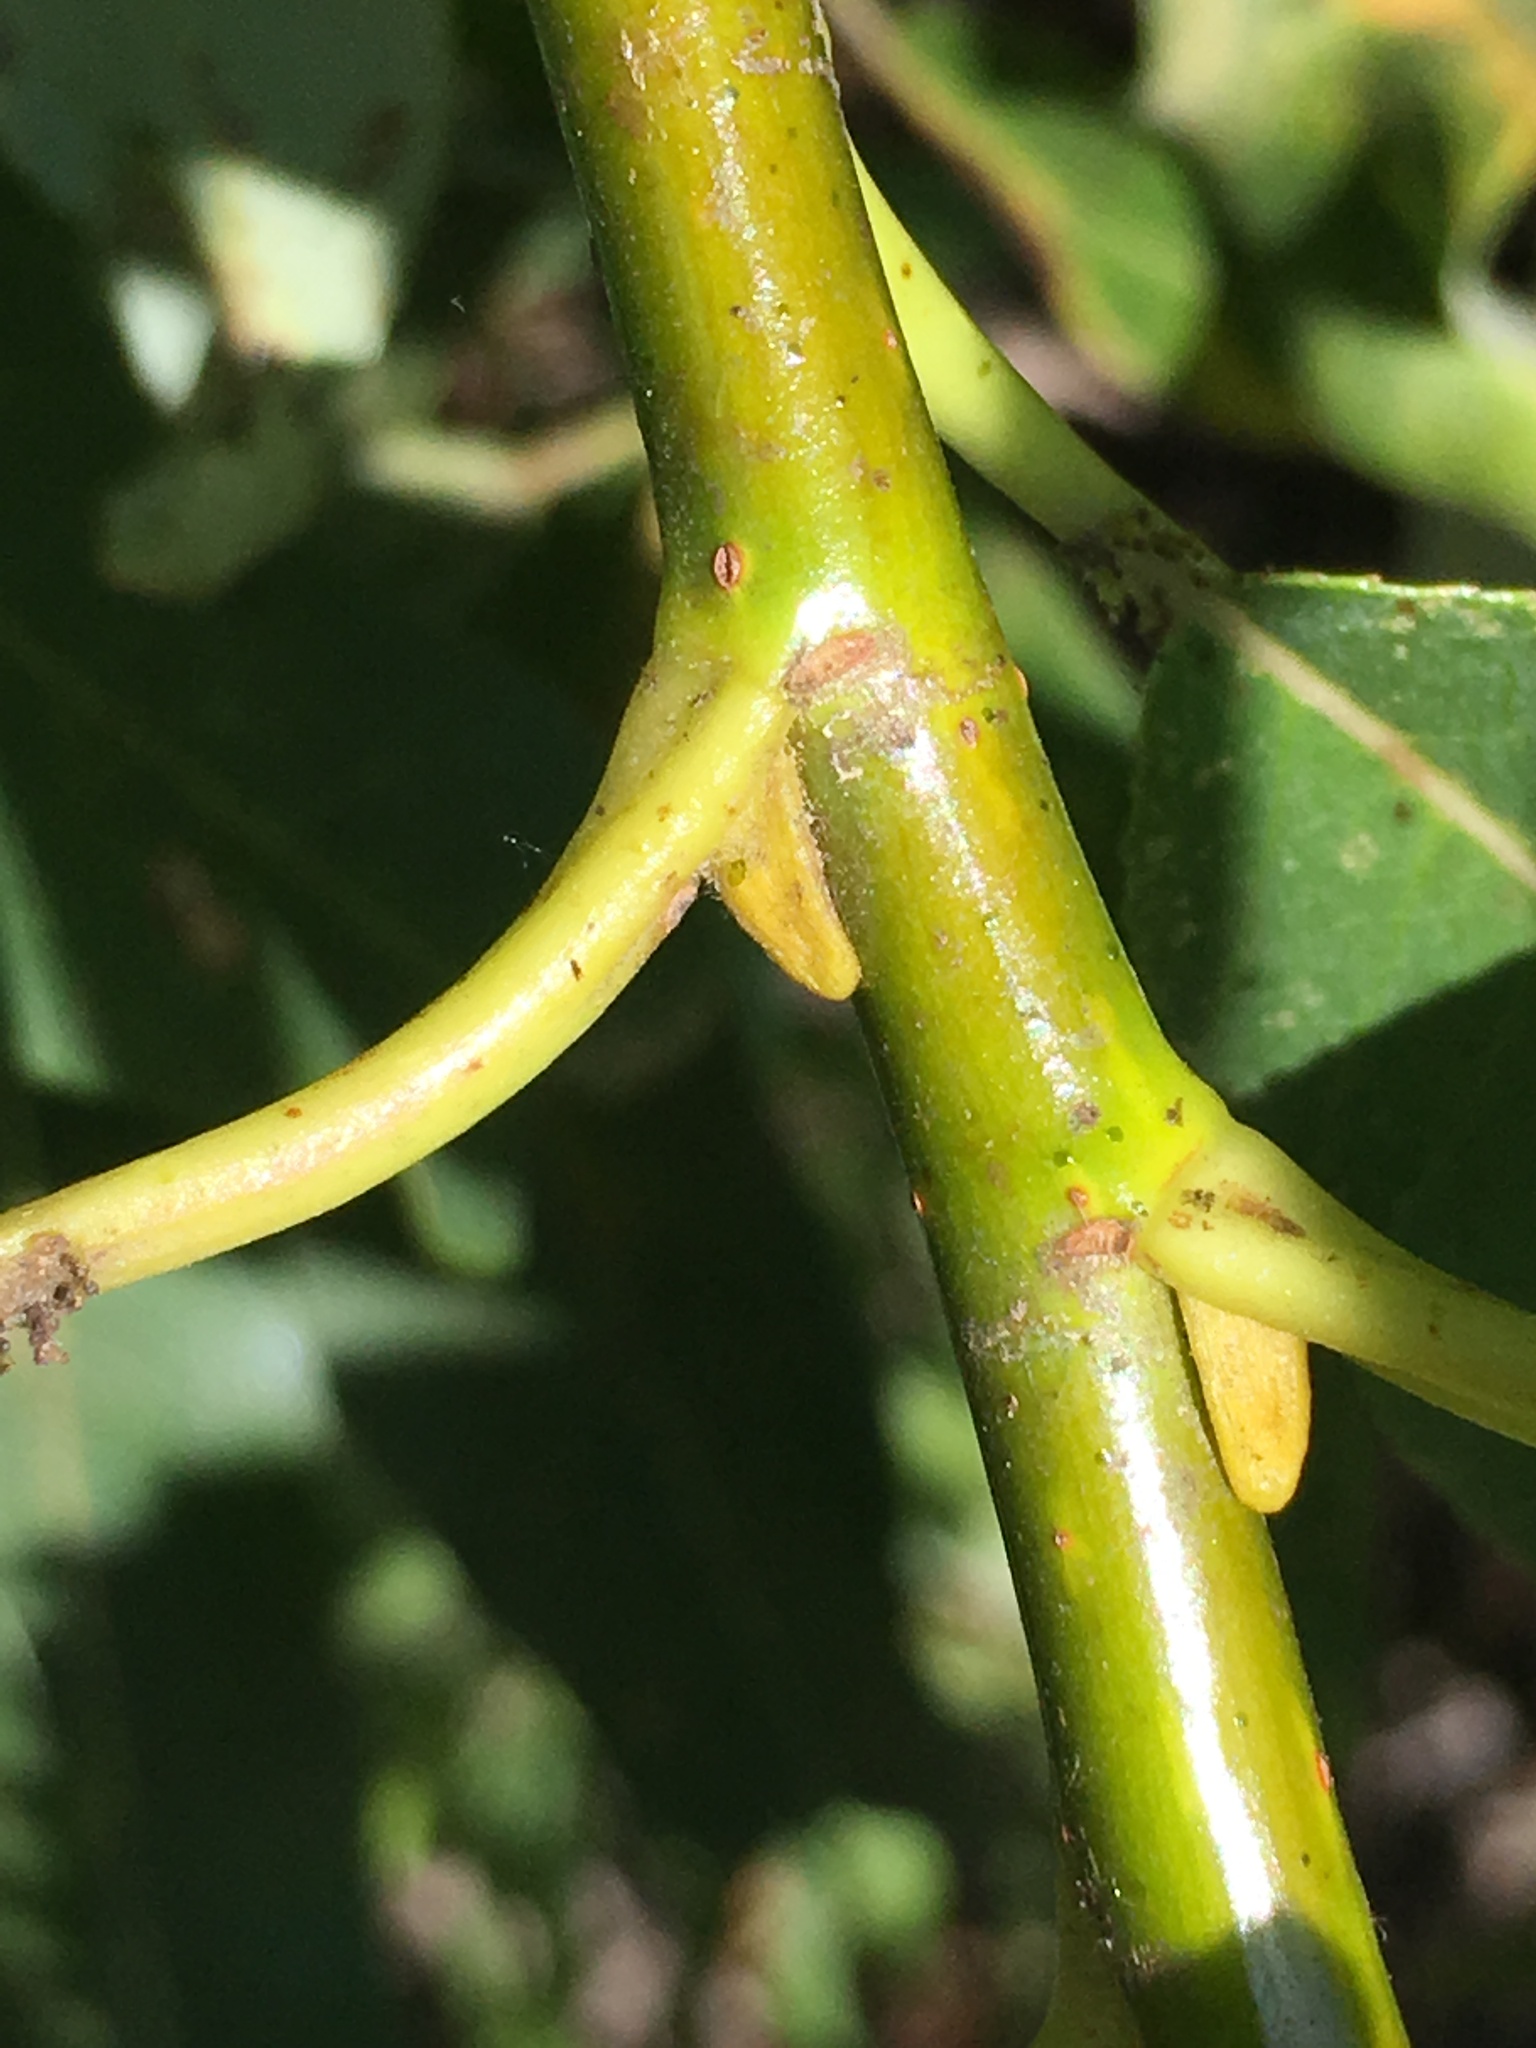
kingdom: Plantae
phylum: Tracheophyta
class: Magnoliopsida
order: Malpighiales
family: Salicaceae
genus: Salix
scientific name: Salix lucida
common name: Shining willow
